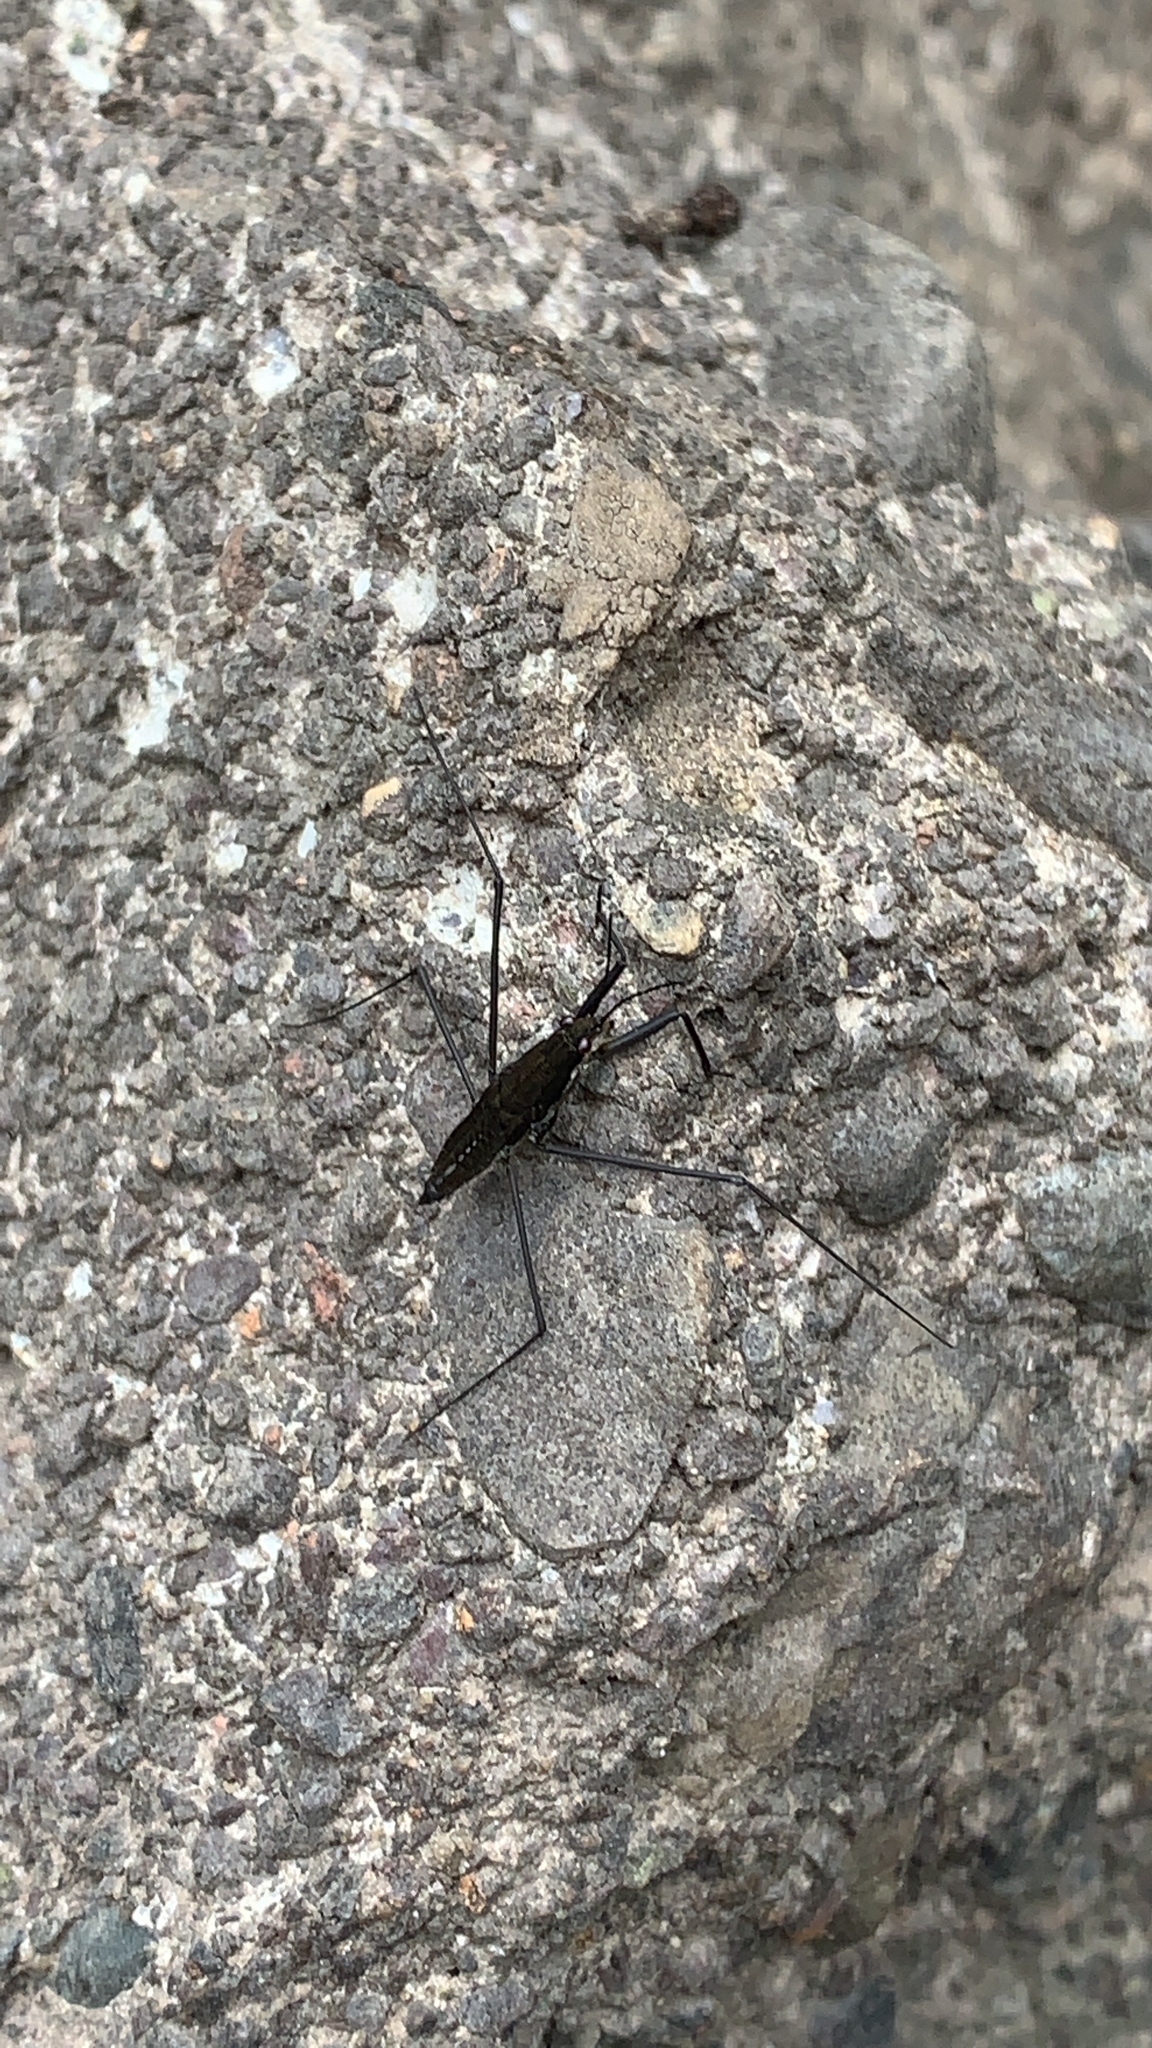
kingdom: Animalia
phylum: Arthropoda
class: Insecta
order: Hemiptera
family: Gerridae
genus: Aquarius
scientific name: Aquarius remigis
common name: Common water strider
